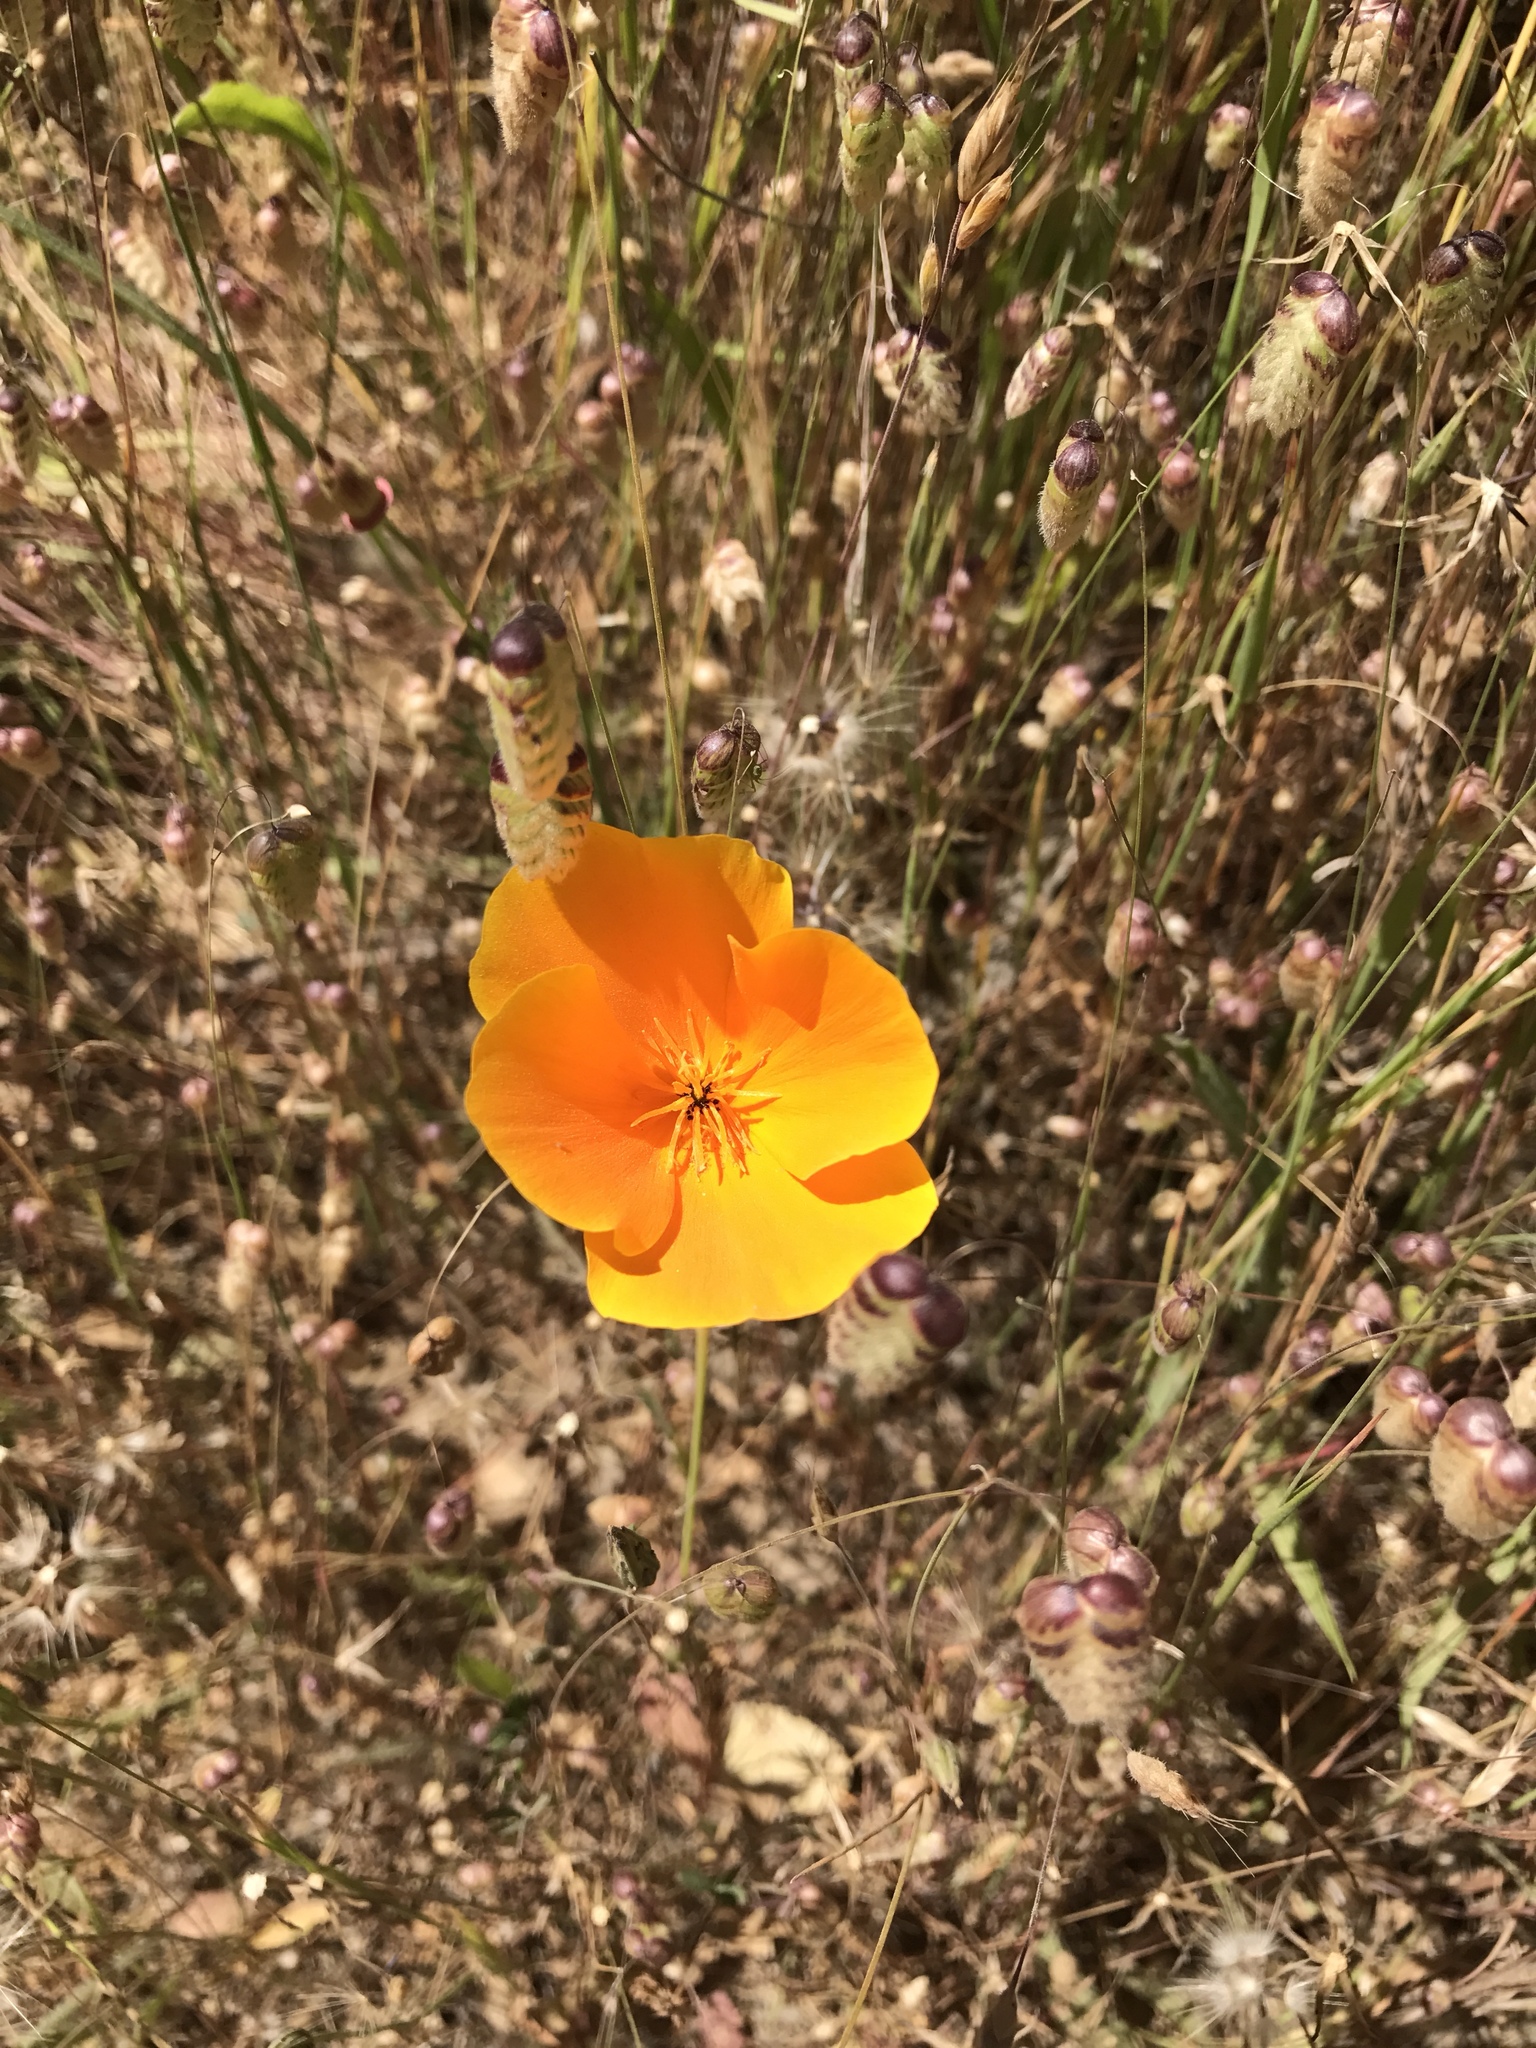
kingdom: Plantae
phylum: Tracheophyta
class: Magnoliopsida
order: Ranunculales
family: Papaveraceae
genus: Eschscholzia
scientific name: Eschscholzia californica
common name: California poppy
